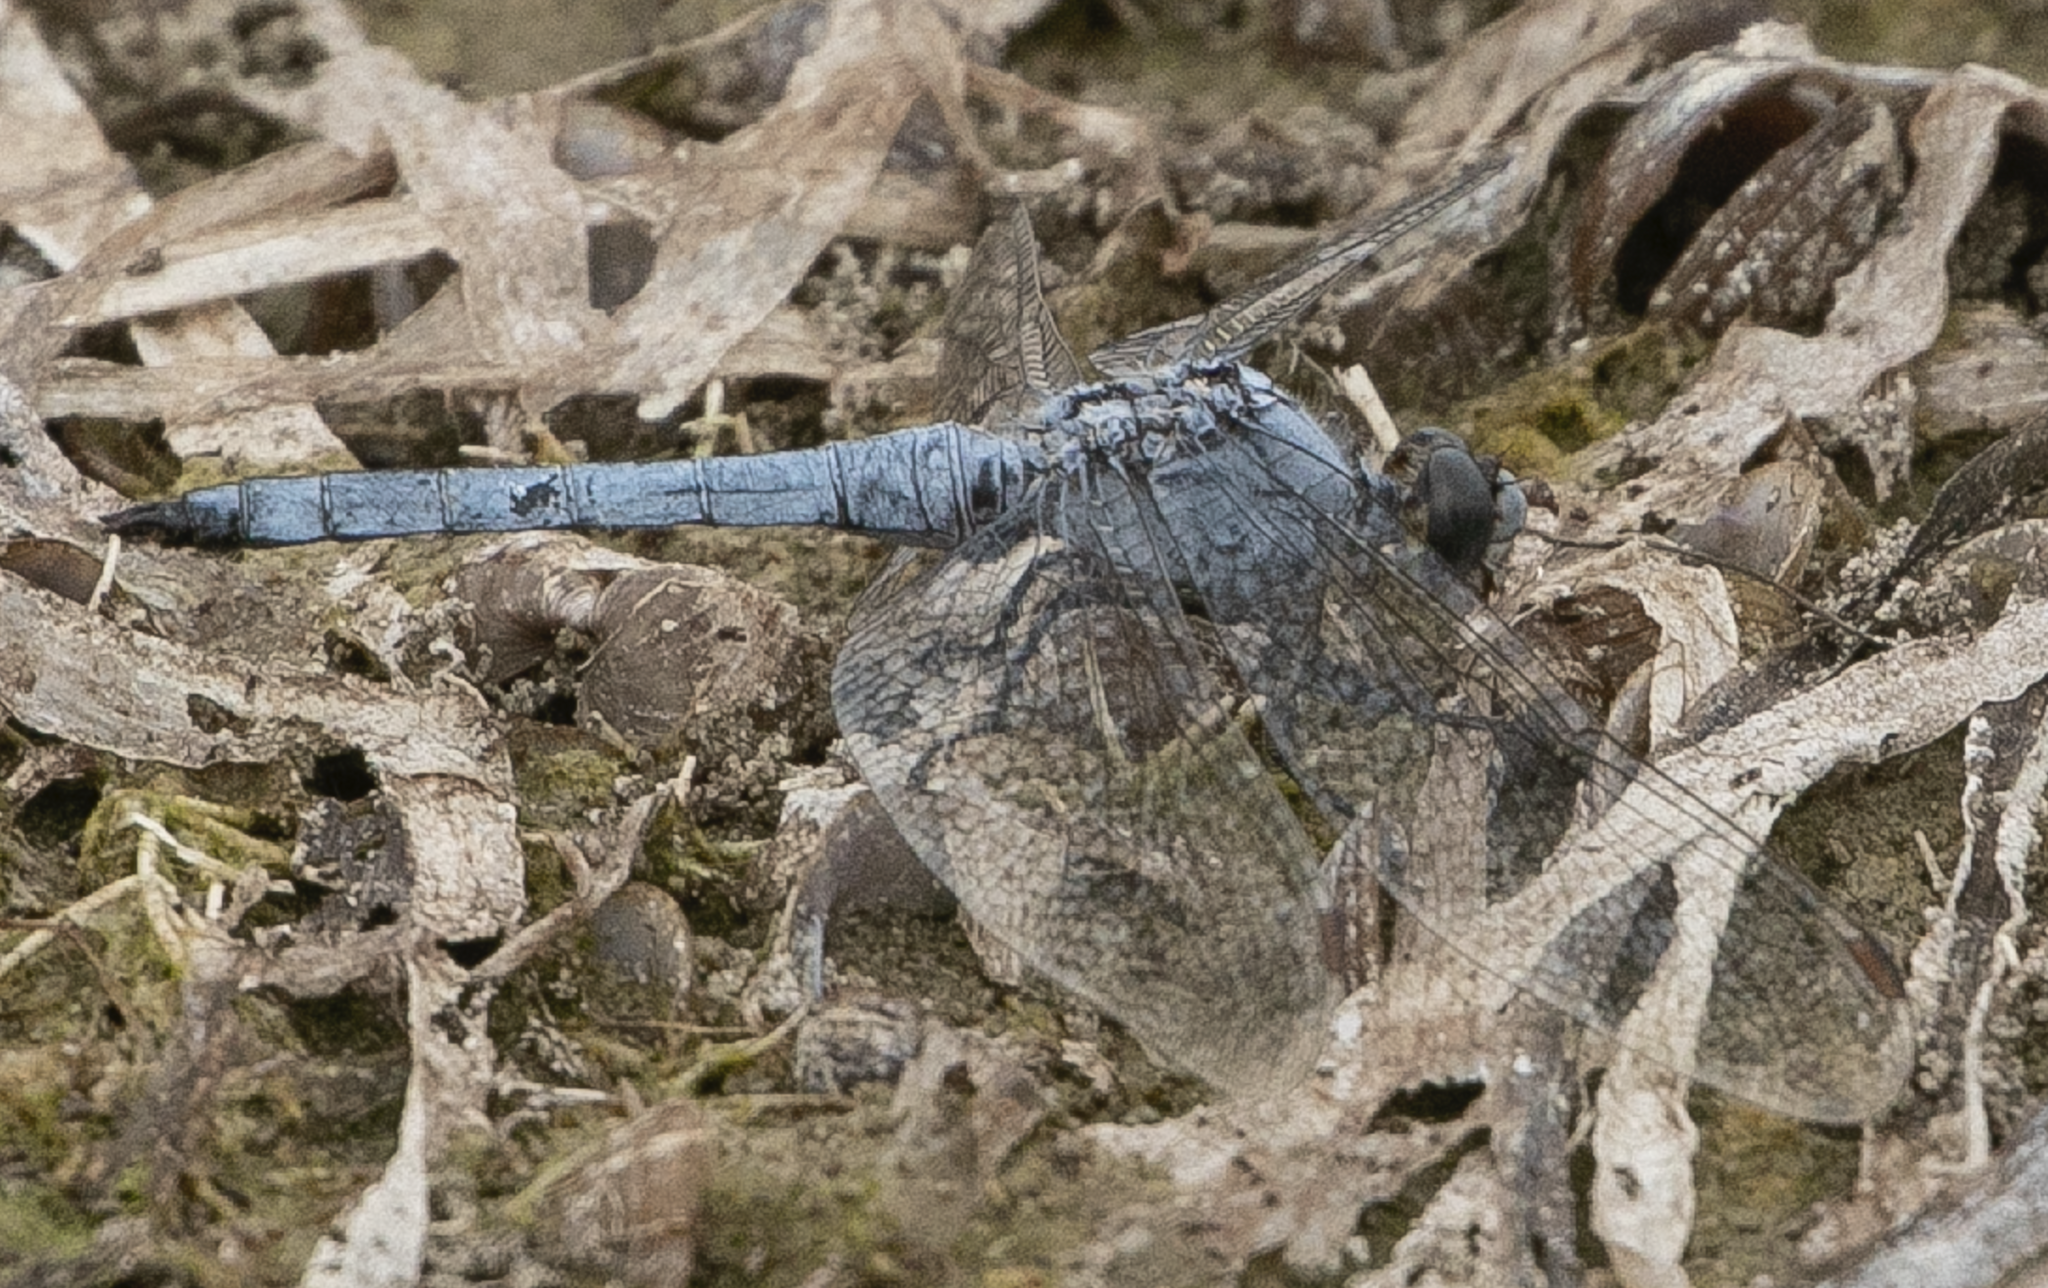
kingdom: Animalia
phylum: Arthropoda
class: Insecta
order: Odonata
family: Libellulidae
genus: Orthetrum
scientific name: Orthetrum brunneum
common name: Southern skimmer
